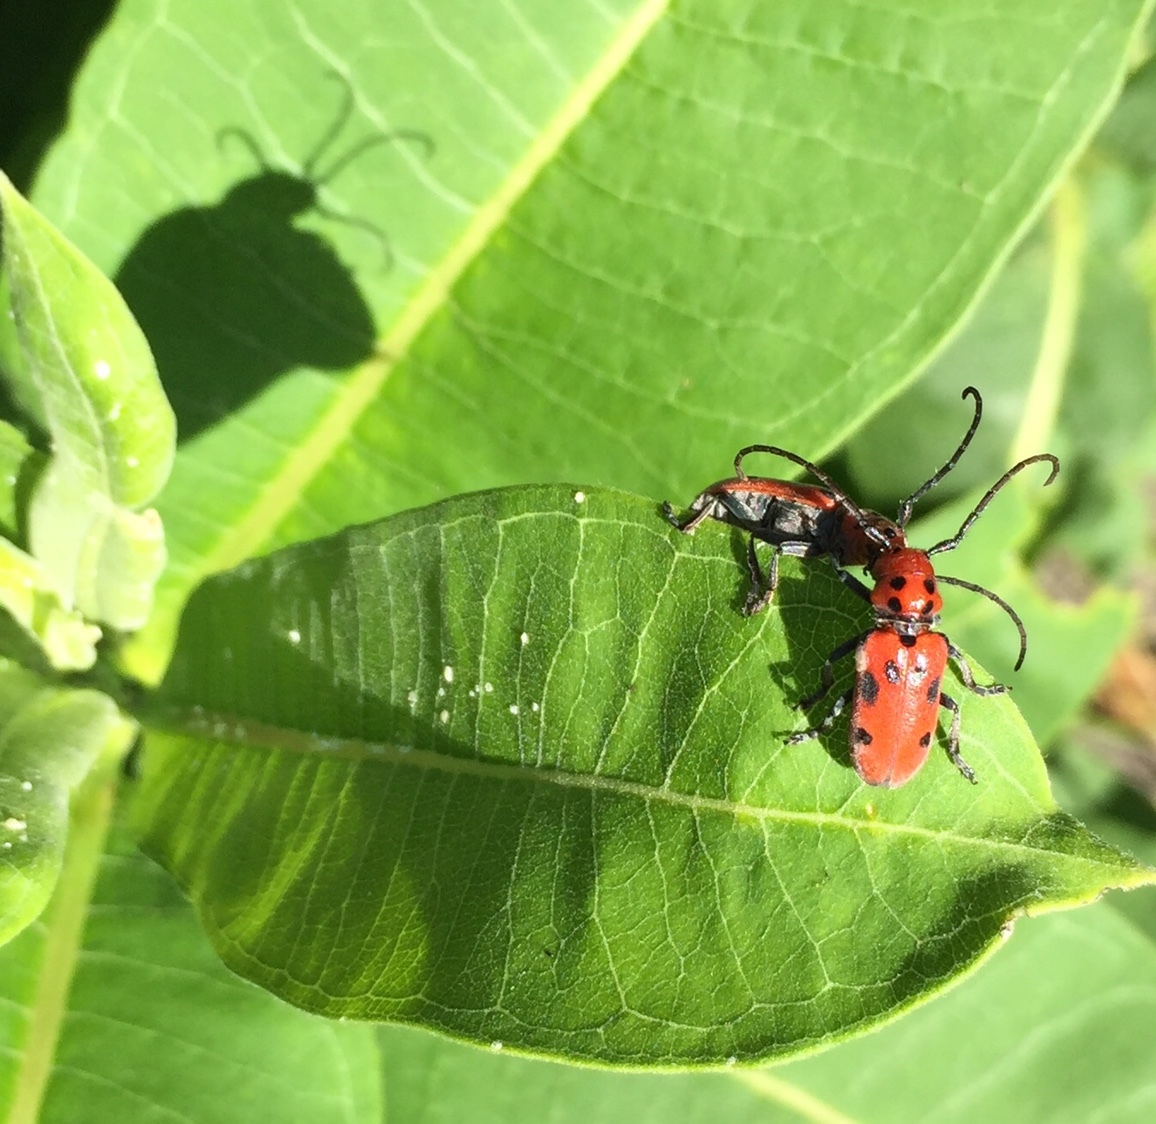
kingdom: Animalia
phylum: Arthropoda
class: Insecta
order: Coleoptera
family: Cerambycidae
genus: Tetraopes
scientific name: Tetraopes tetrophthalmus
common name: Red milkweed beetle
